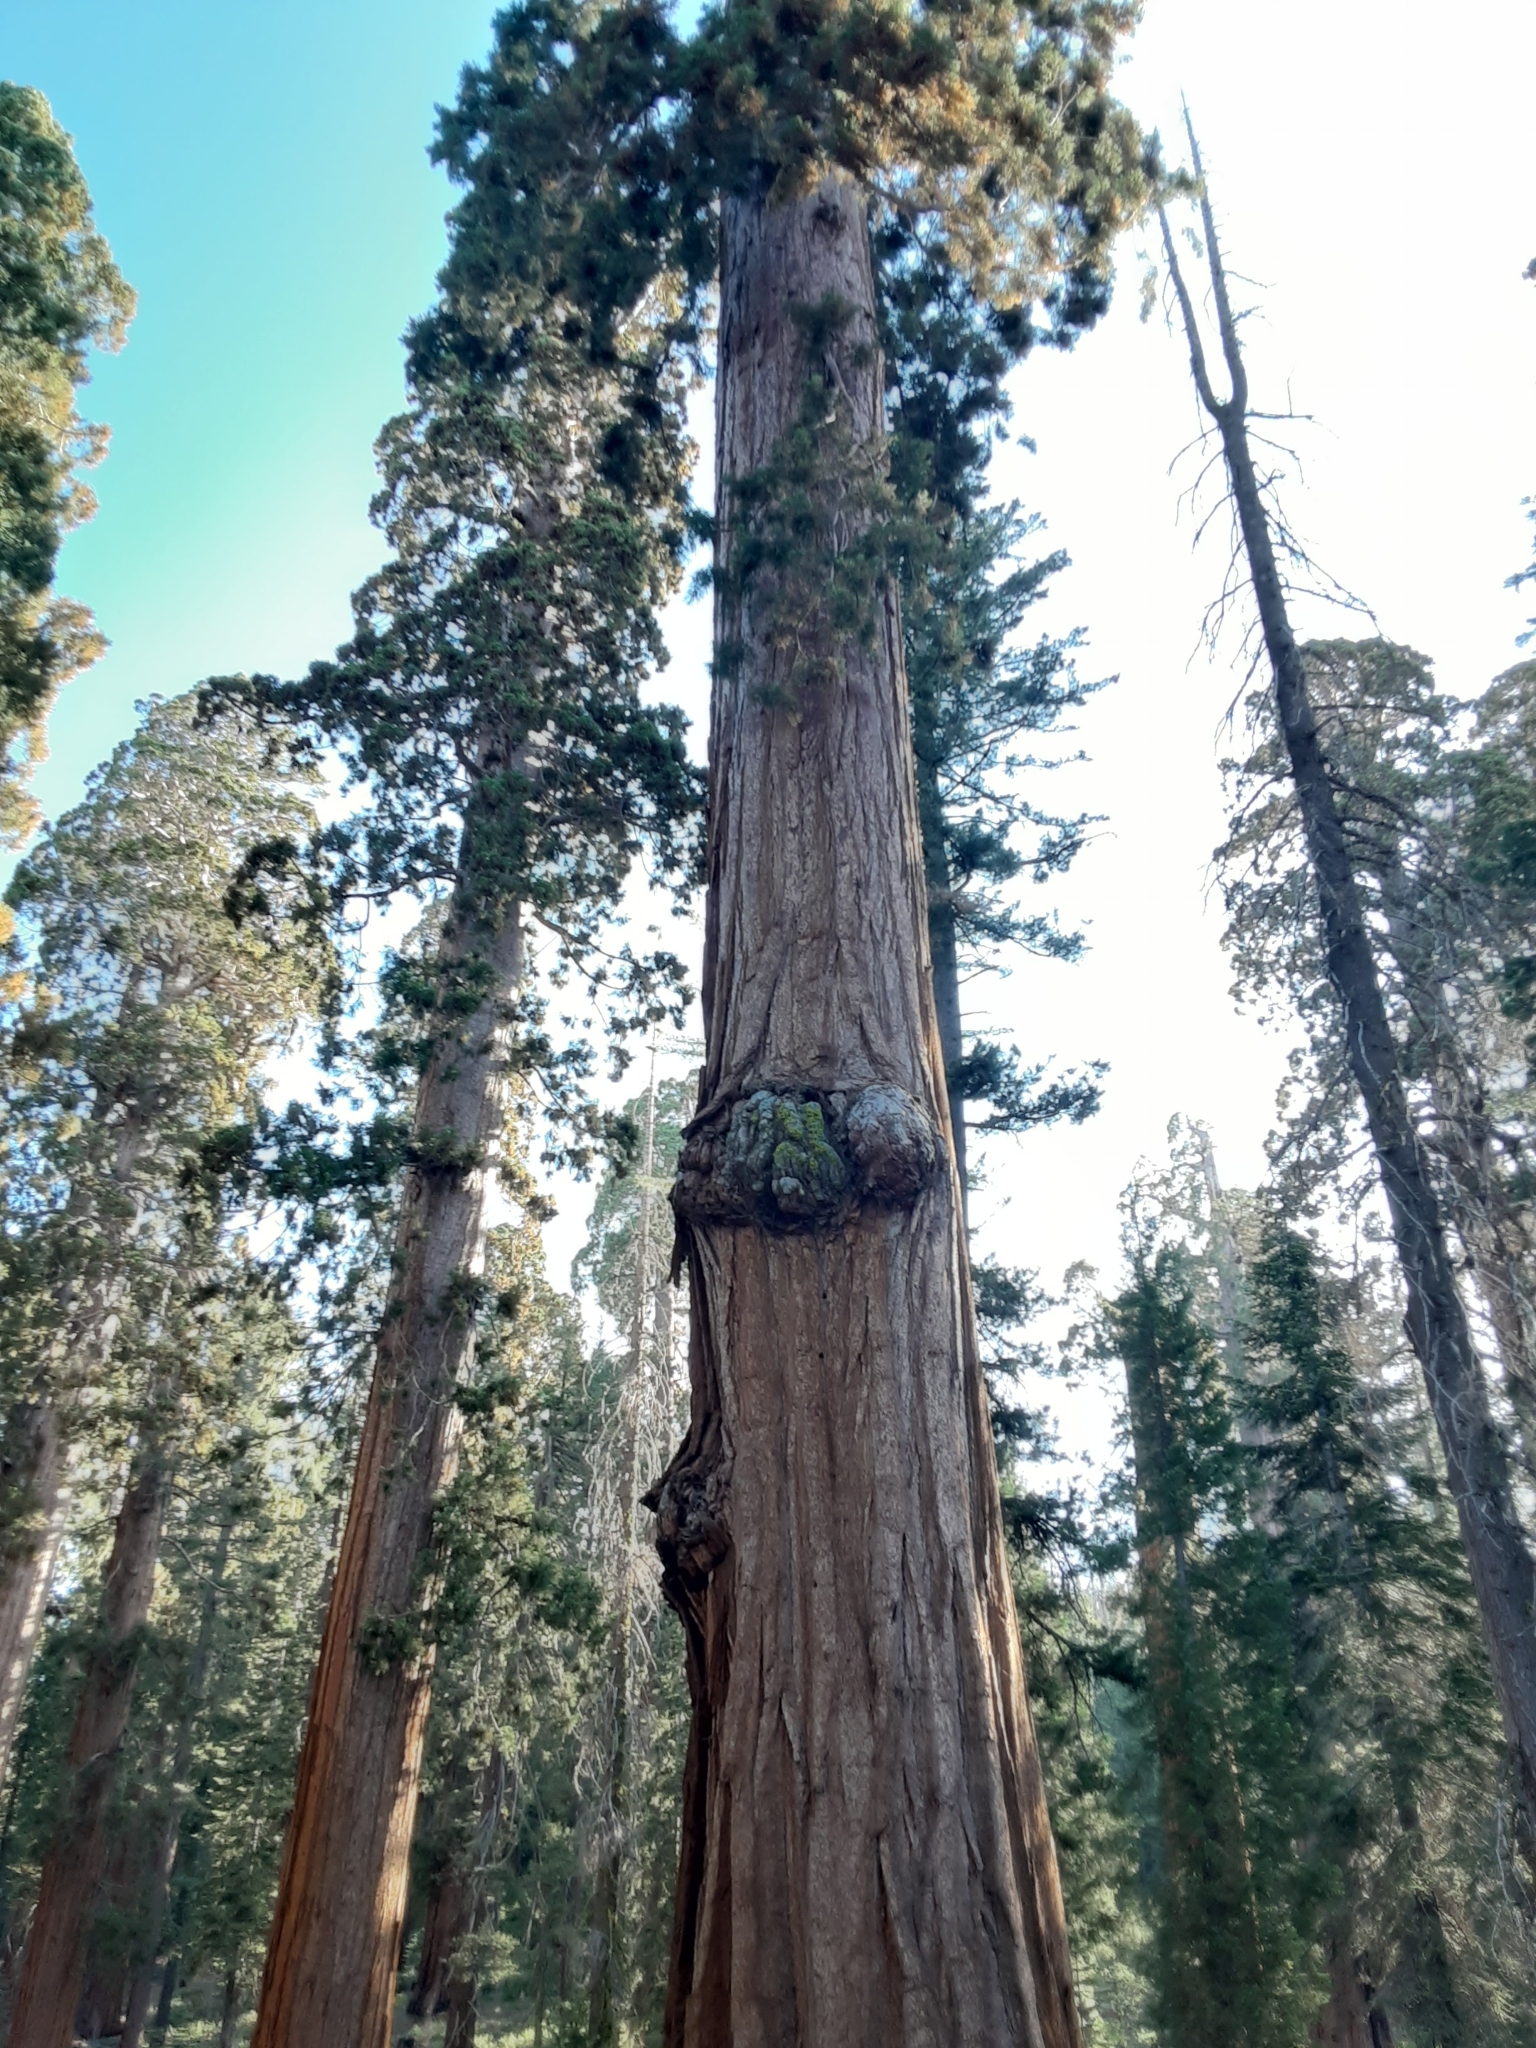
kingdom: Plantae
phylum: Tracheophyta
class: Pinopsida
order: Pinales
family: Cupressaceae
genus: Sequoiadendron
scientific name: Sequoiadendron giganteum
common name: Wellingtonia
